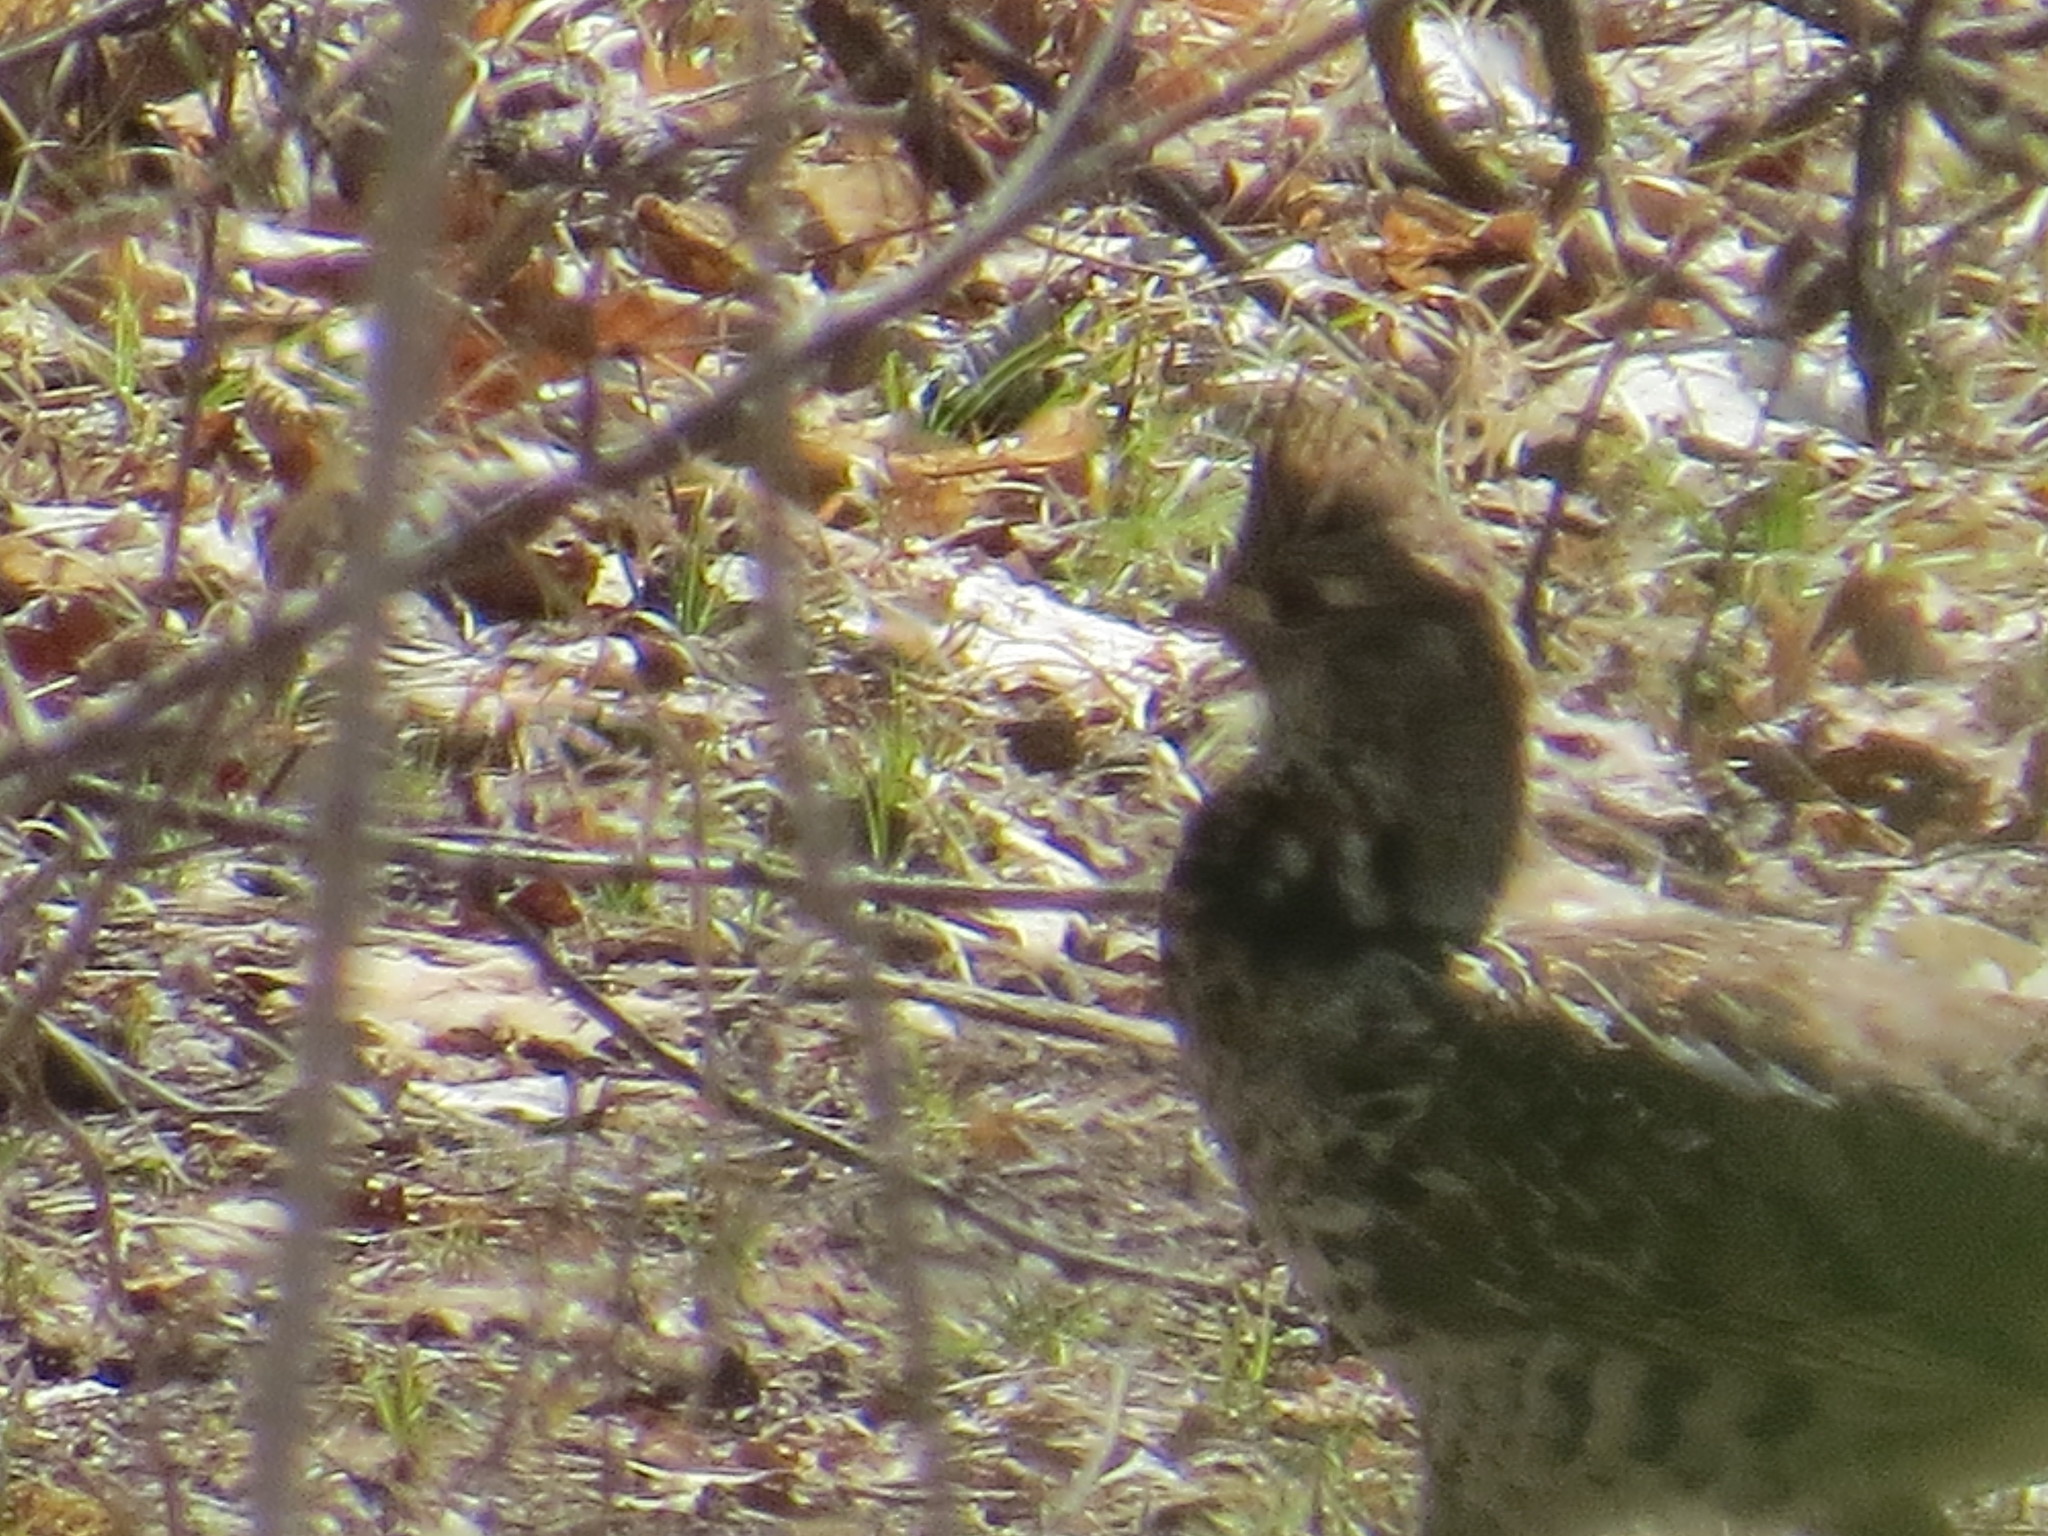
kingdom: Animalia
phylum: Chordata
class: Aves
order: Galliformes
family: Phasianidae
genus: Bonasa
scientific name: Bonasa umbellus
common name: Ruffed grouse
